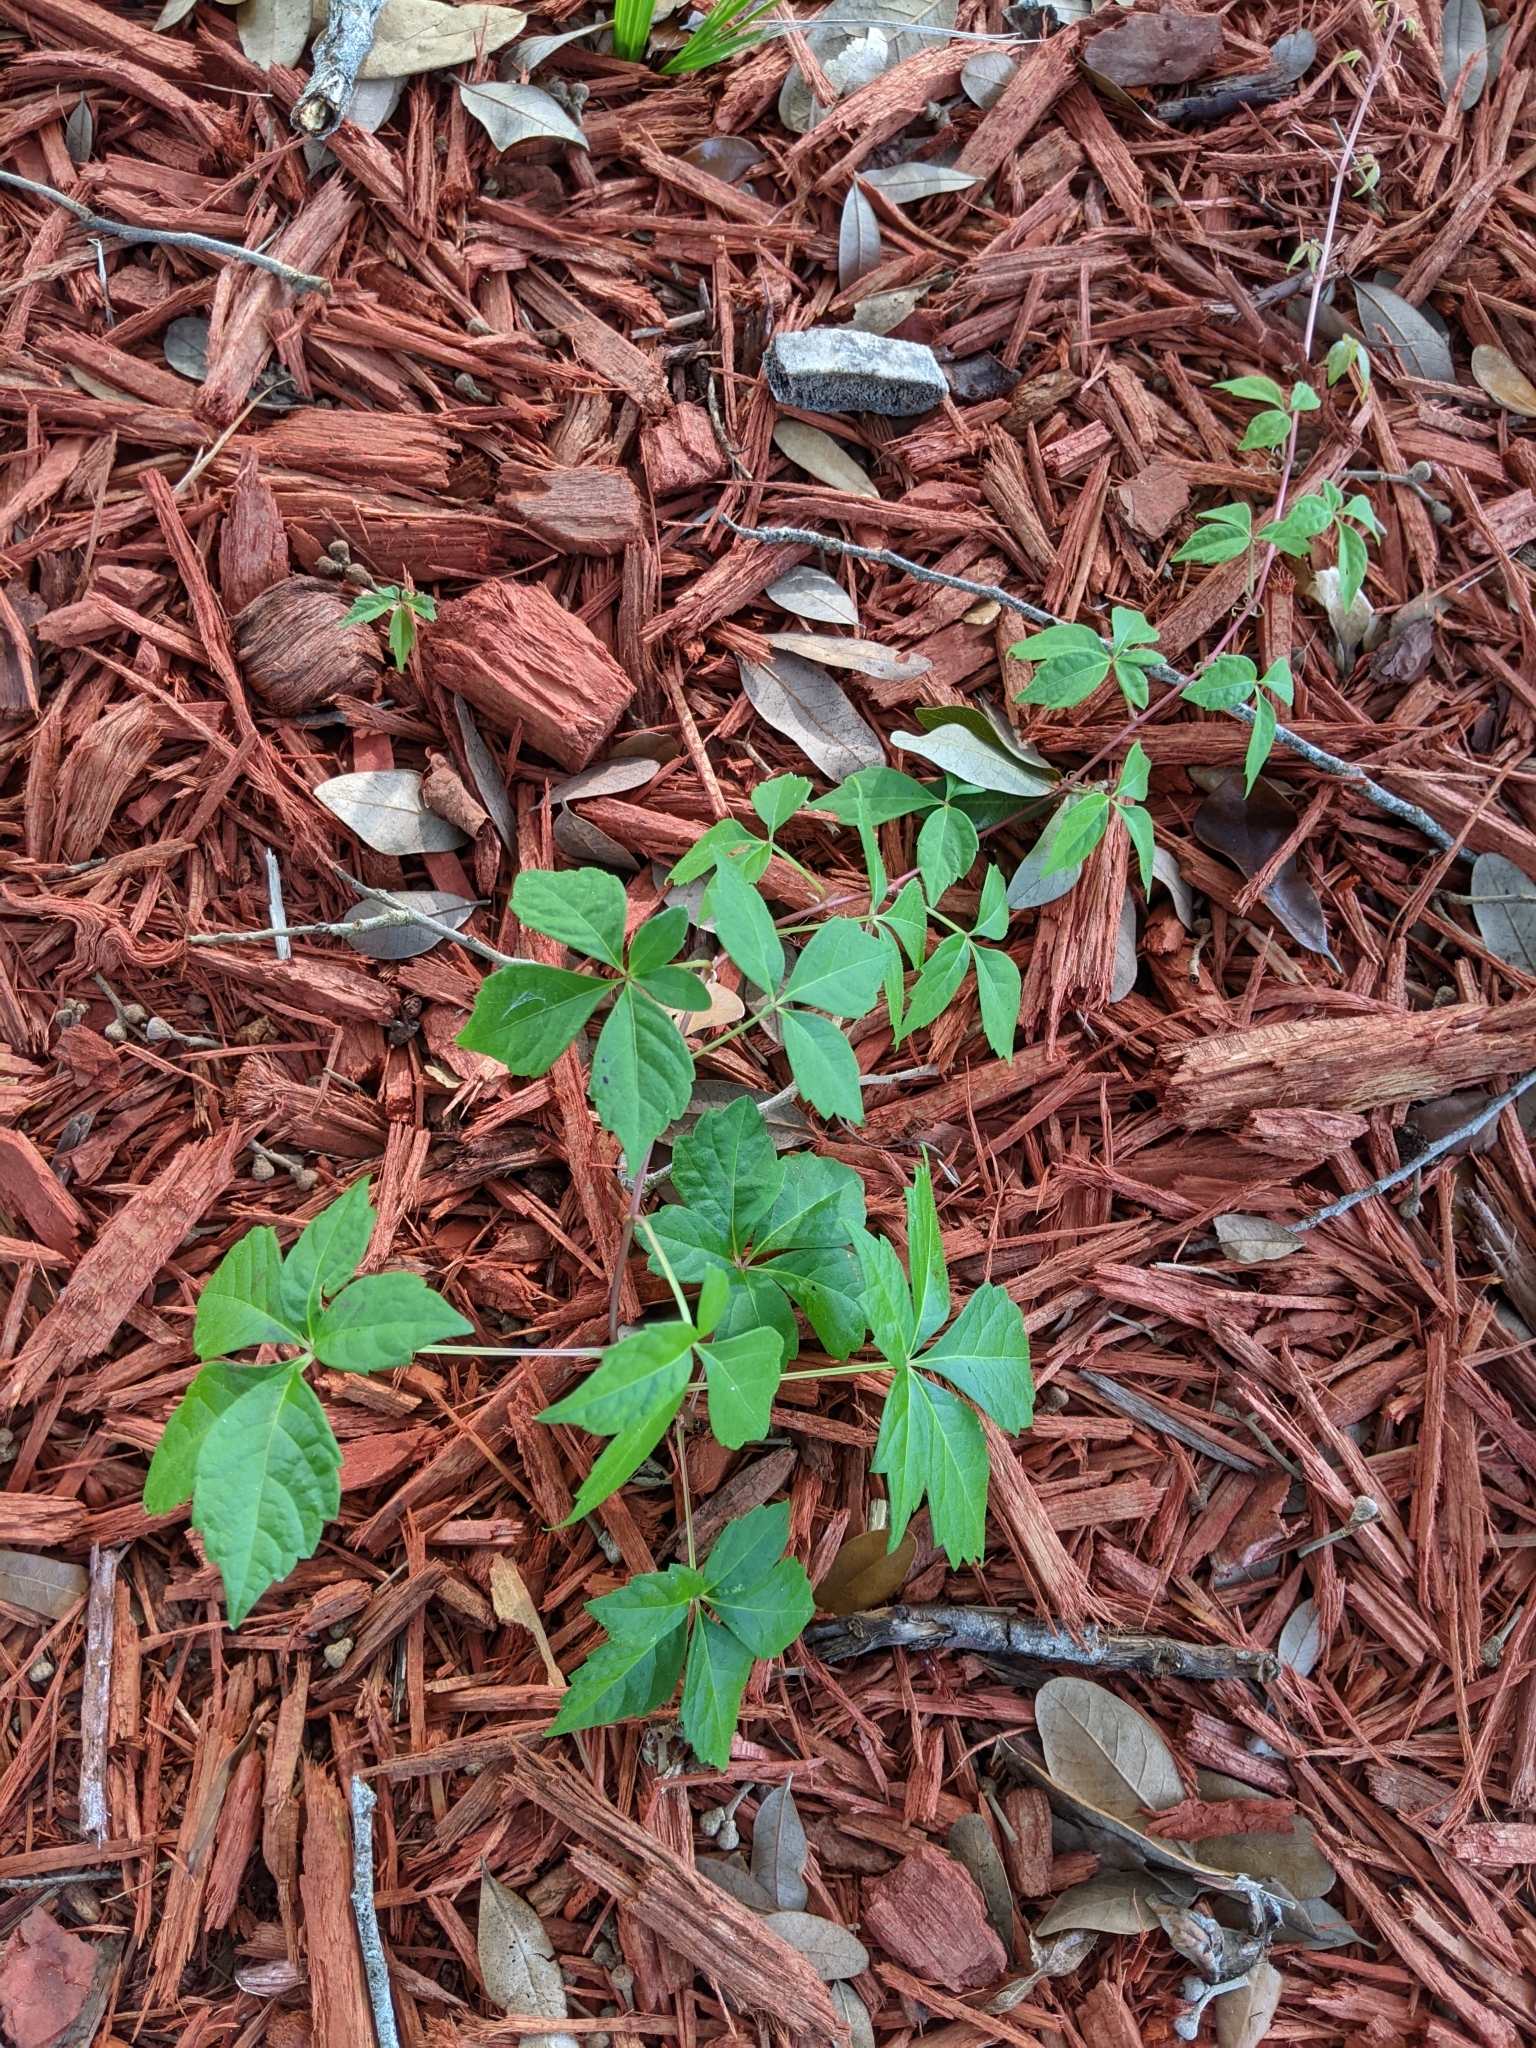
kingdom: Plantae
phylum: Tracheophyta
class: Magnoliopsida
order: Vitales
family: Vitaceae
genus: Parthenocissus
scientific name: Parthenocissus quinquefolia
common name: Virginia-creeper
